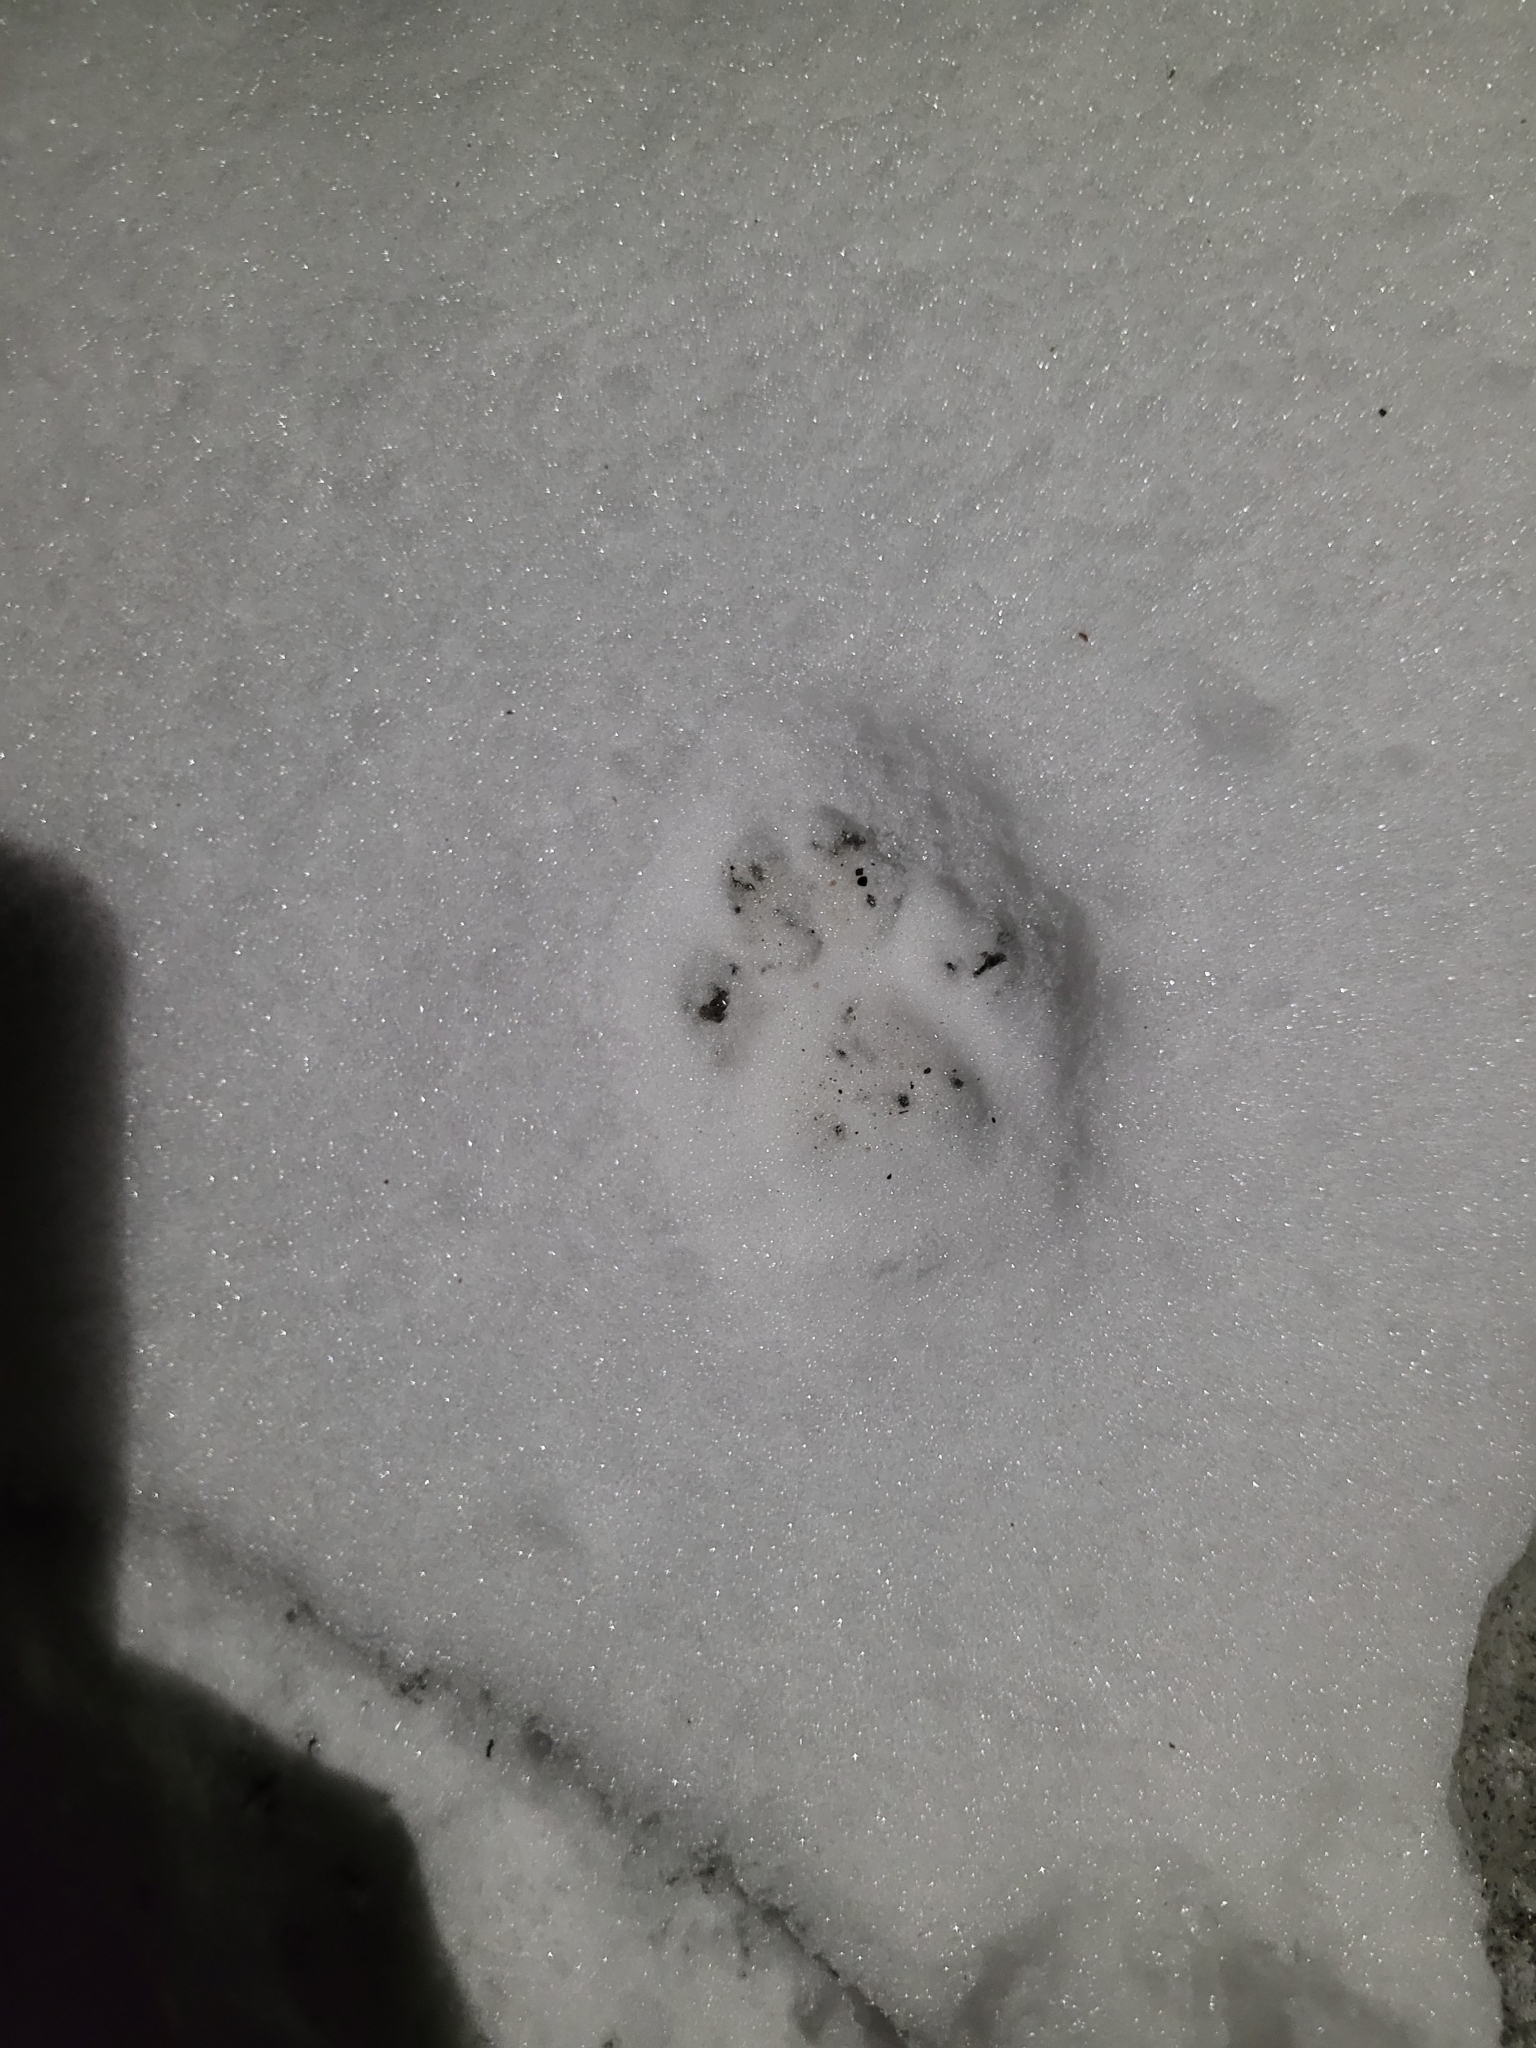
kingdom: Animalia
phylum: Chordata
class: Mammalia
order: Carnivora
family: Felidae
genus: Felis
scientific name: Felis catus
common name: Domestic cat
